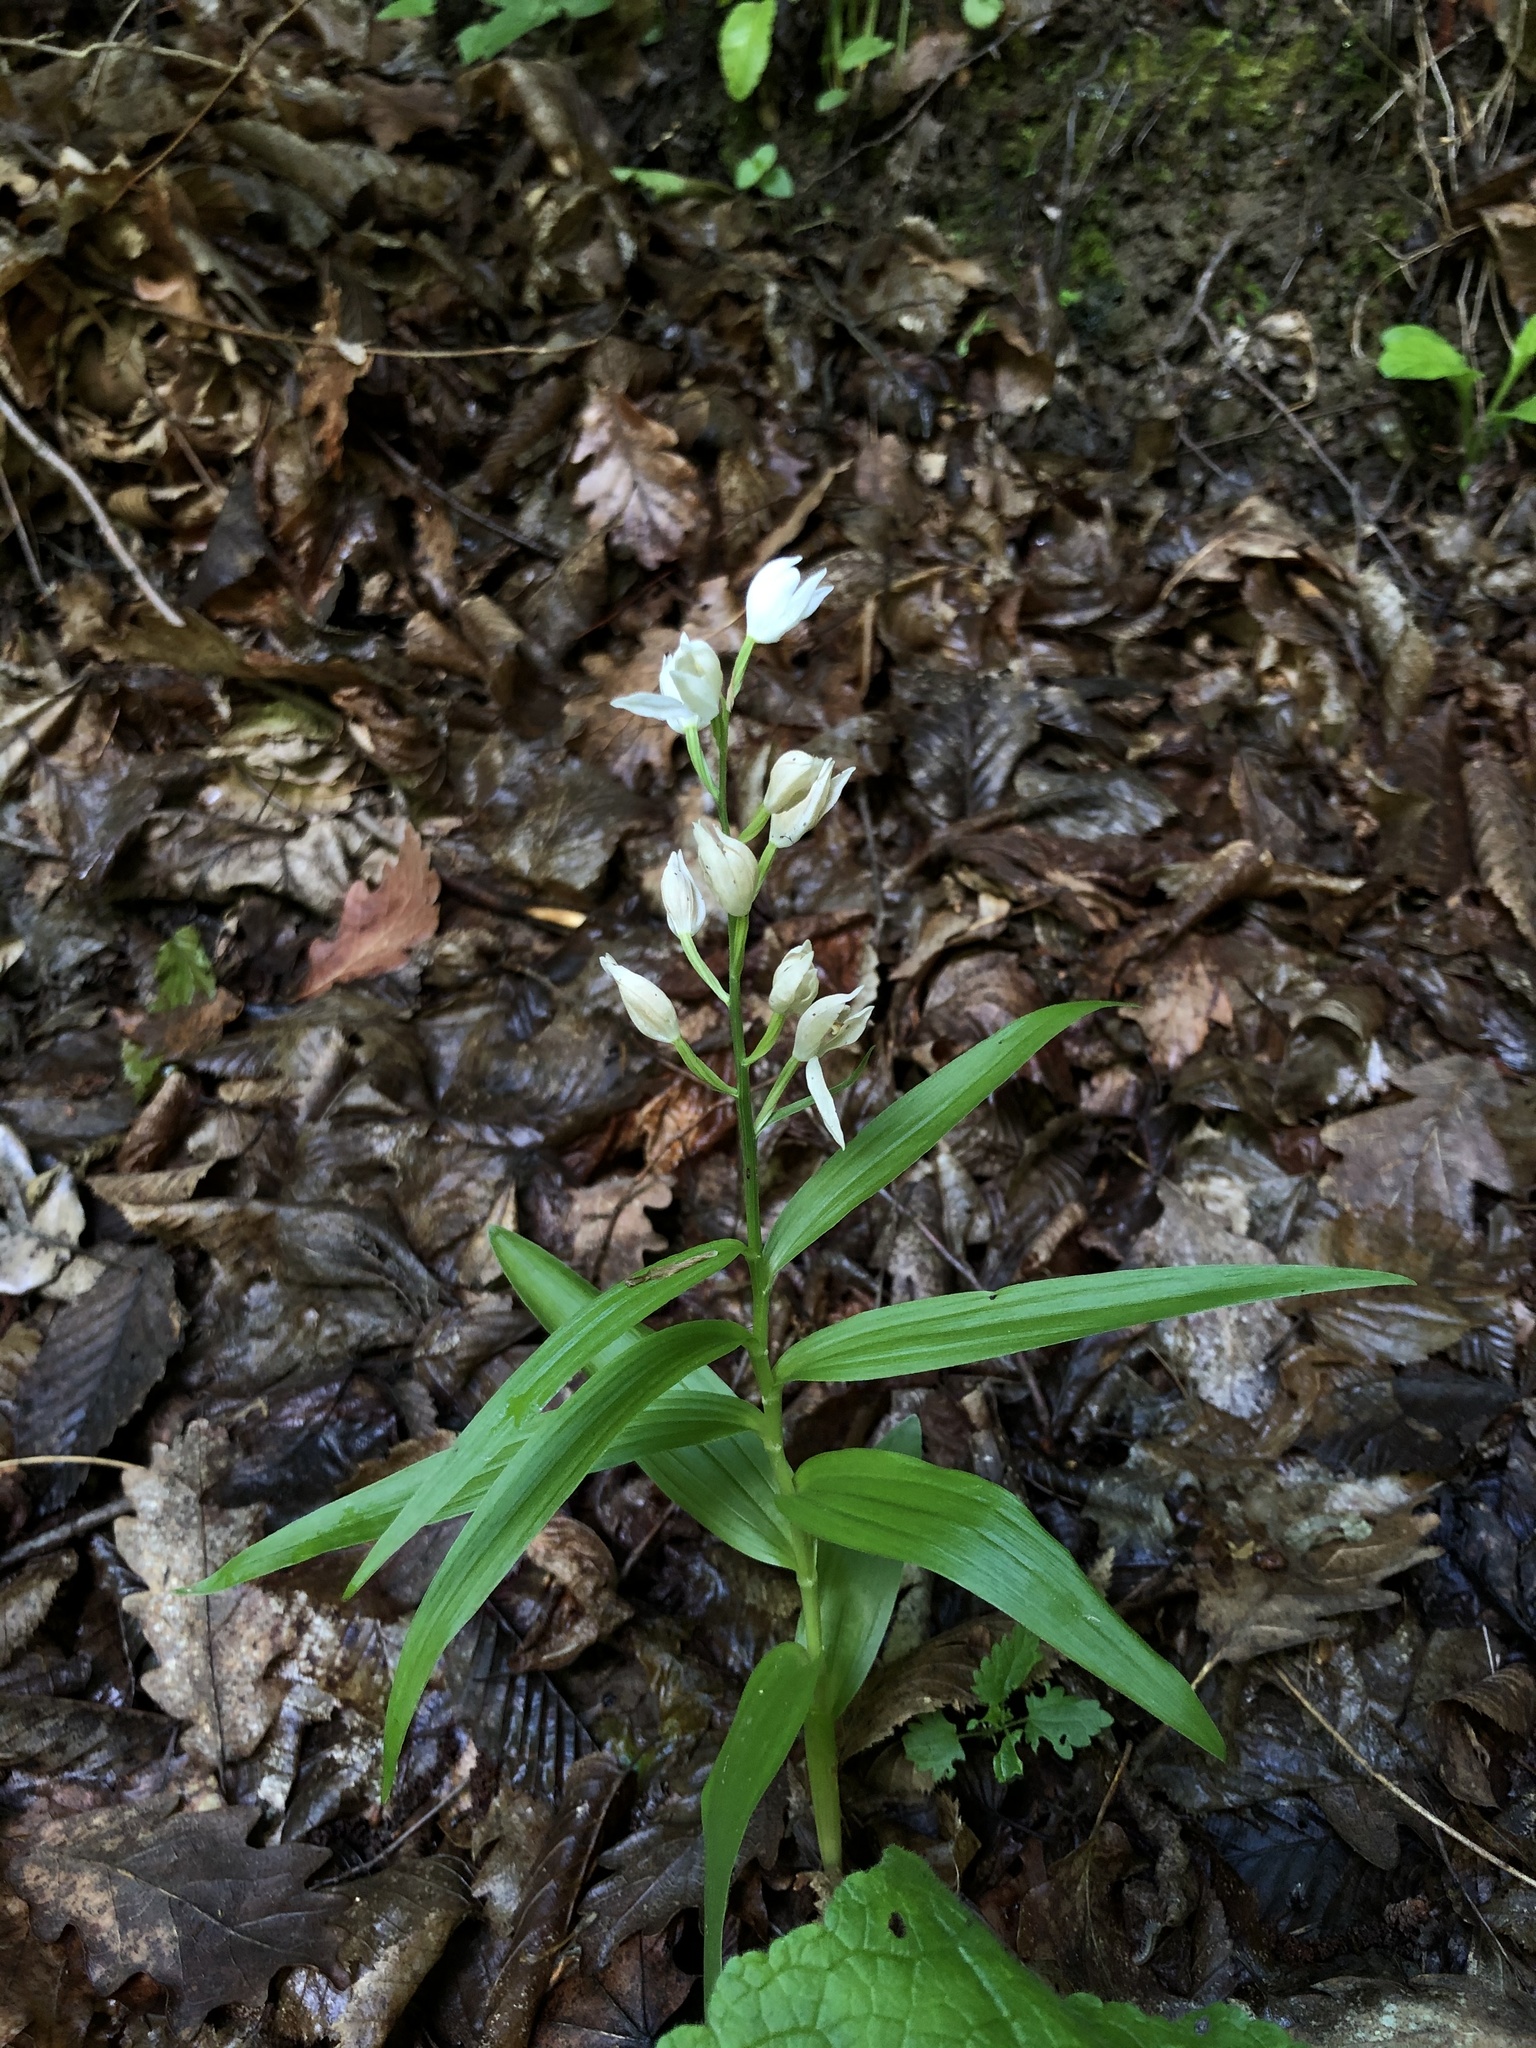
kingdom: Plantae
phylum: Tracheophyta
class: Liliopsida
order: Asparagales
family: Orchidaceae
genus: Cephalanthera
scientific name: Cephalanthera damasonium
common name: White helleborine
